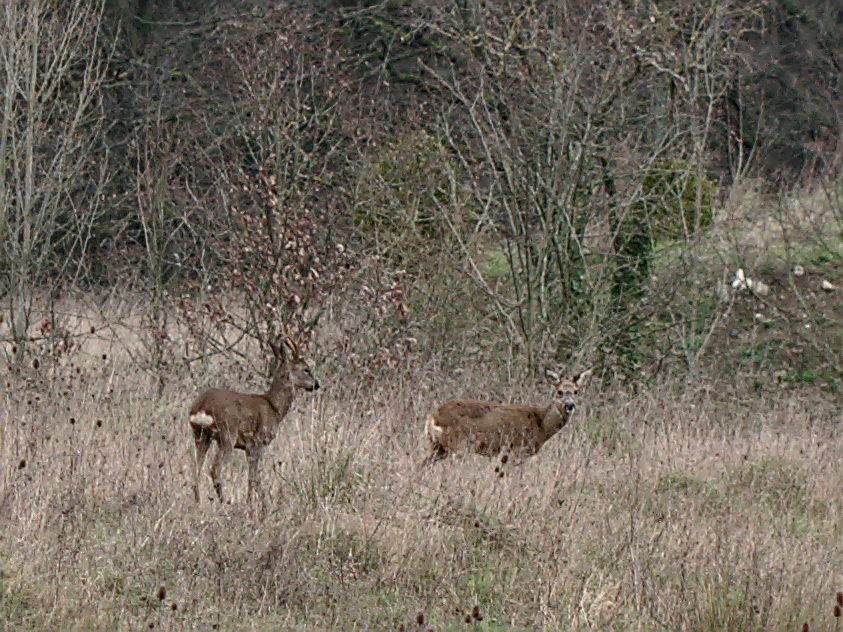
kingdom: Animalia
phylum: Chordata
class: Mammalia
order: Artiodactyla
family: Cervidae
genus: Capreolus
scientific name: Capreolus capreolus
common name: Western roe deer
